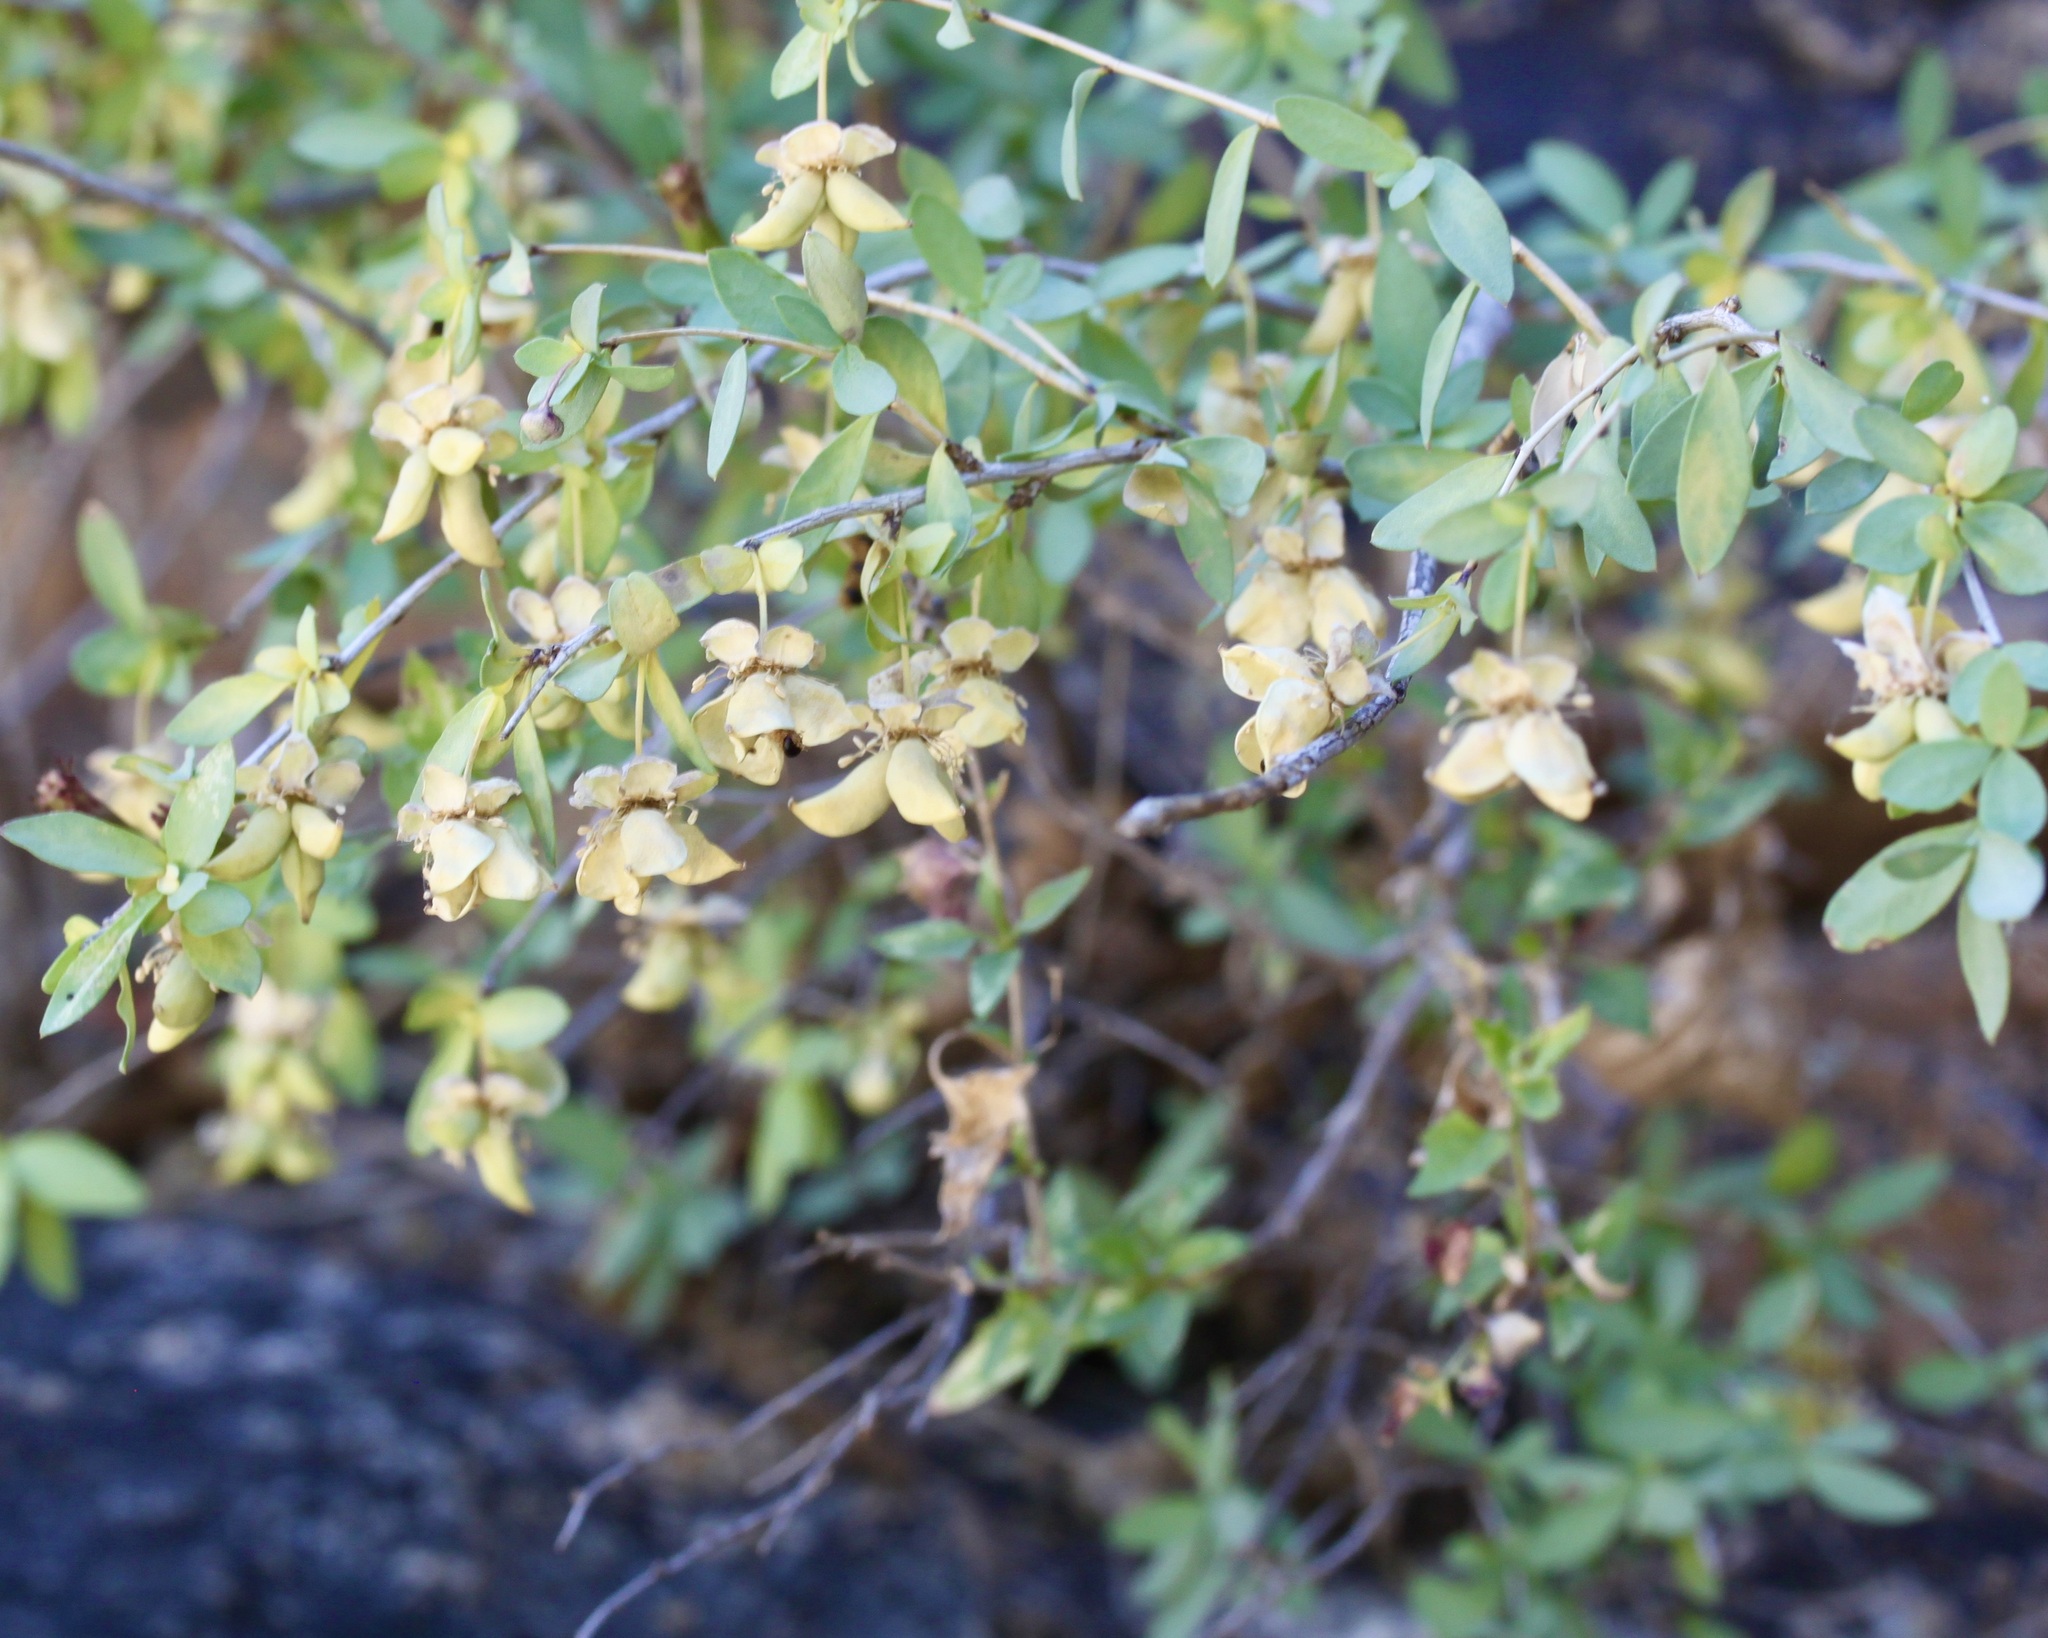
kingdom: Plantae
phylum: Tracheophyta
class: Magnoliopsida
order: Crossosomatales
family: Crossosomataceae
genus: Crossosoma
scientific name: Crossosoma bigelovii
